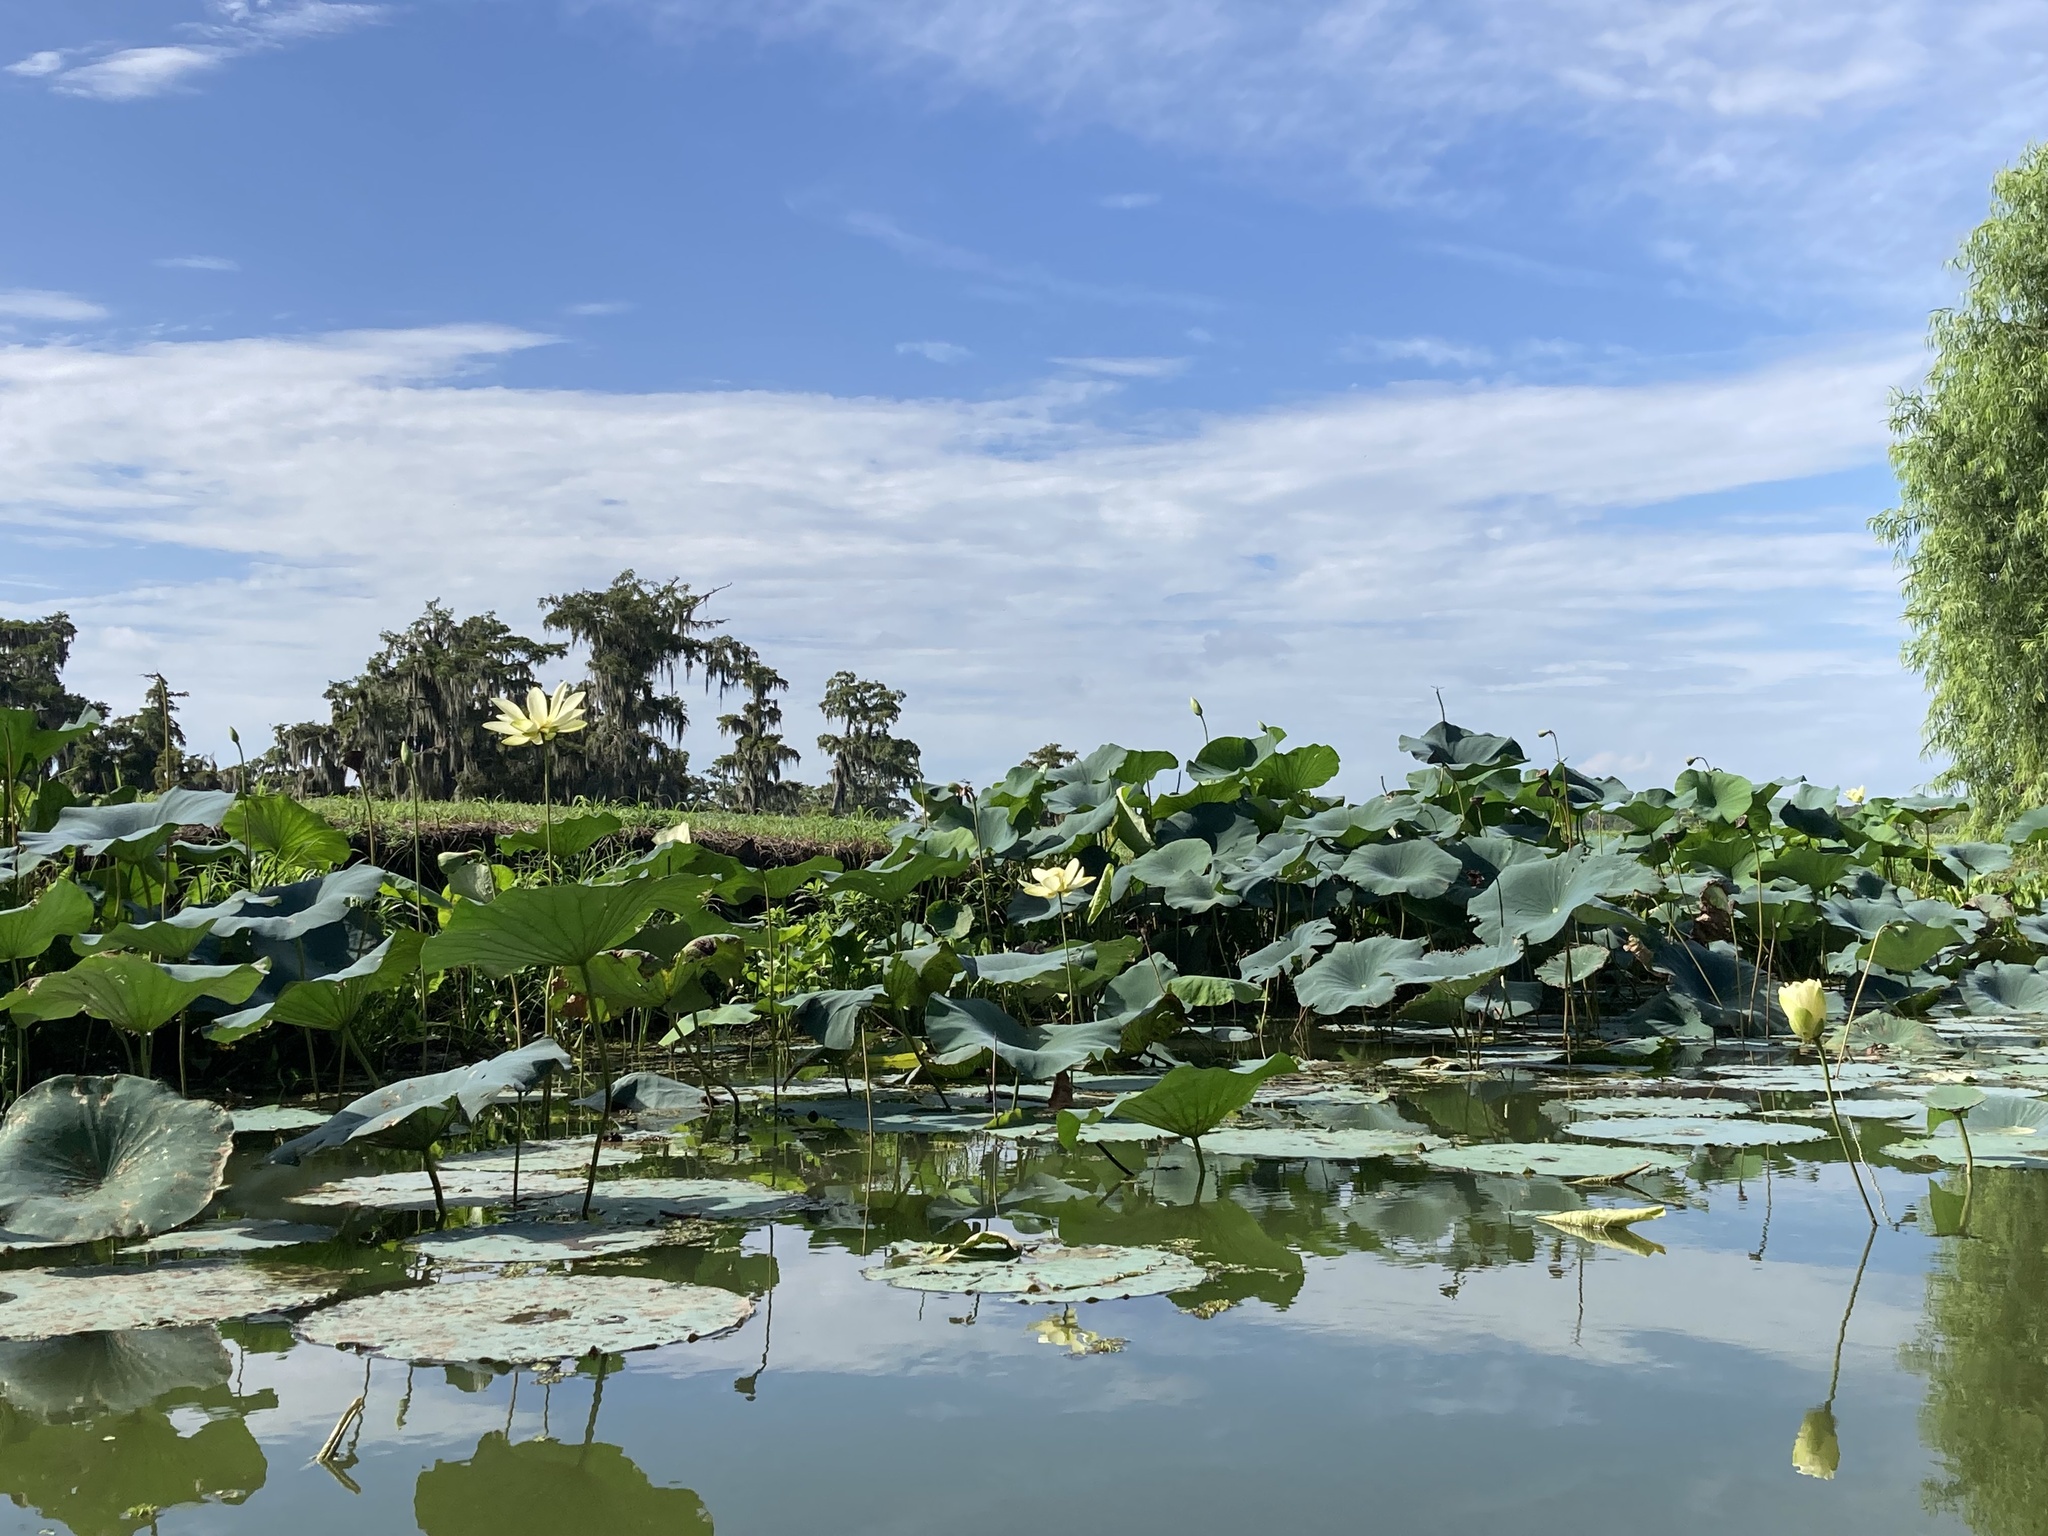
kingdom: Plantae
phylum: Tracheophyta
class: Magnoliopsida
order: Proteales
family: Nelumbonaceae
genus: Nelumbo
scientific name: Nelumbo lutea
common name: American lotus
